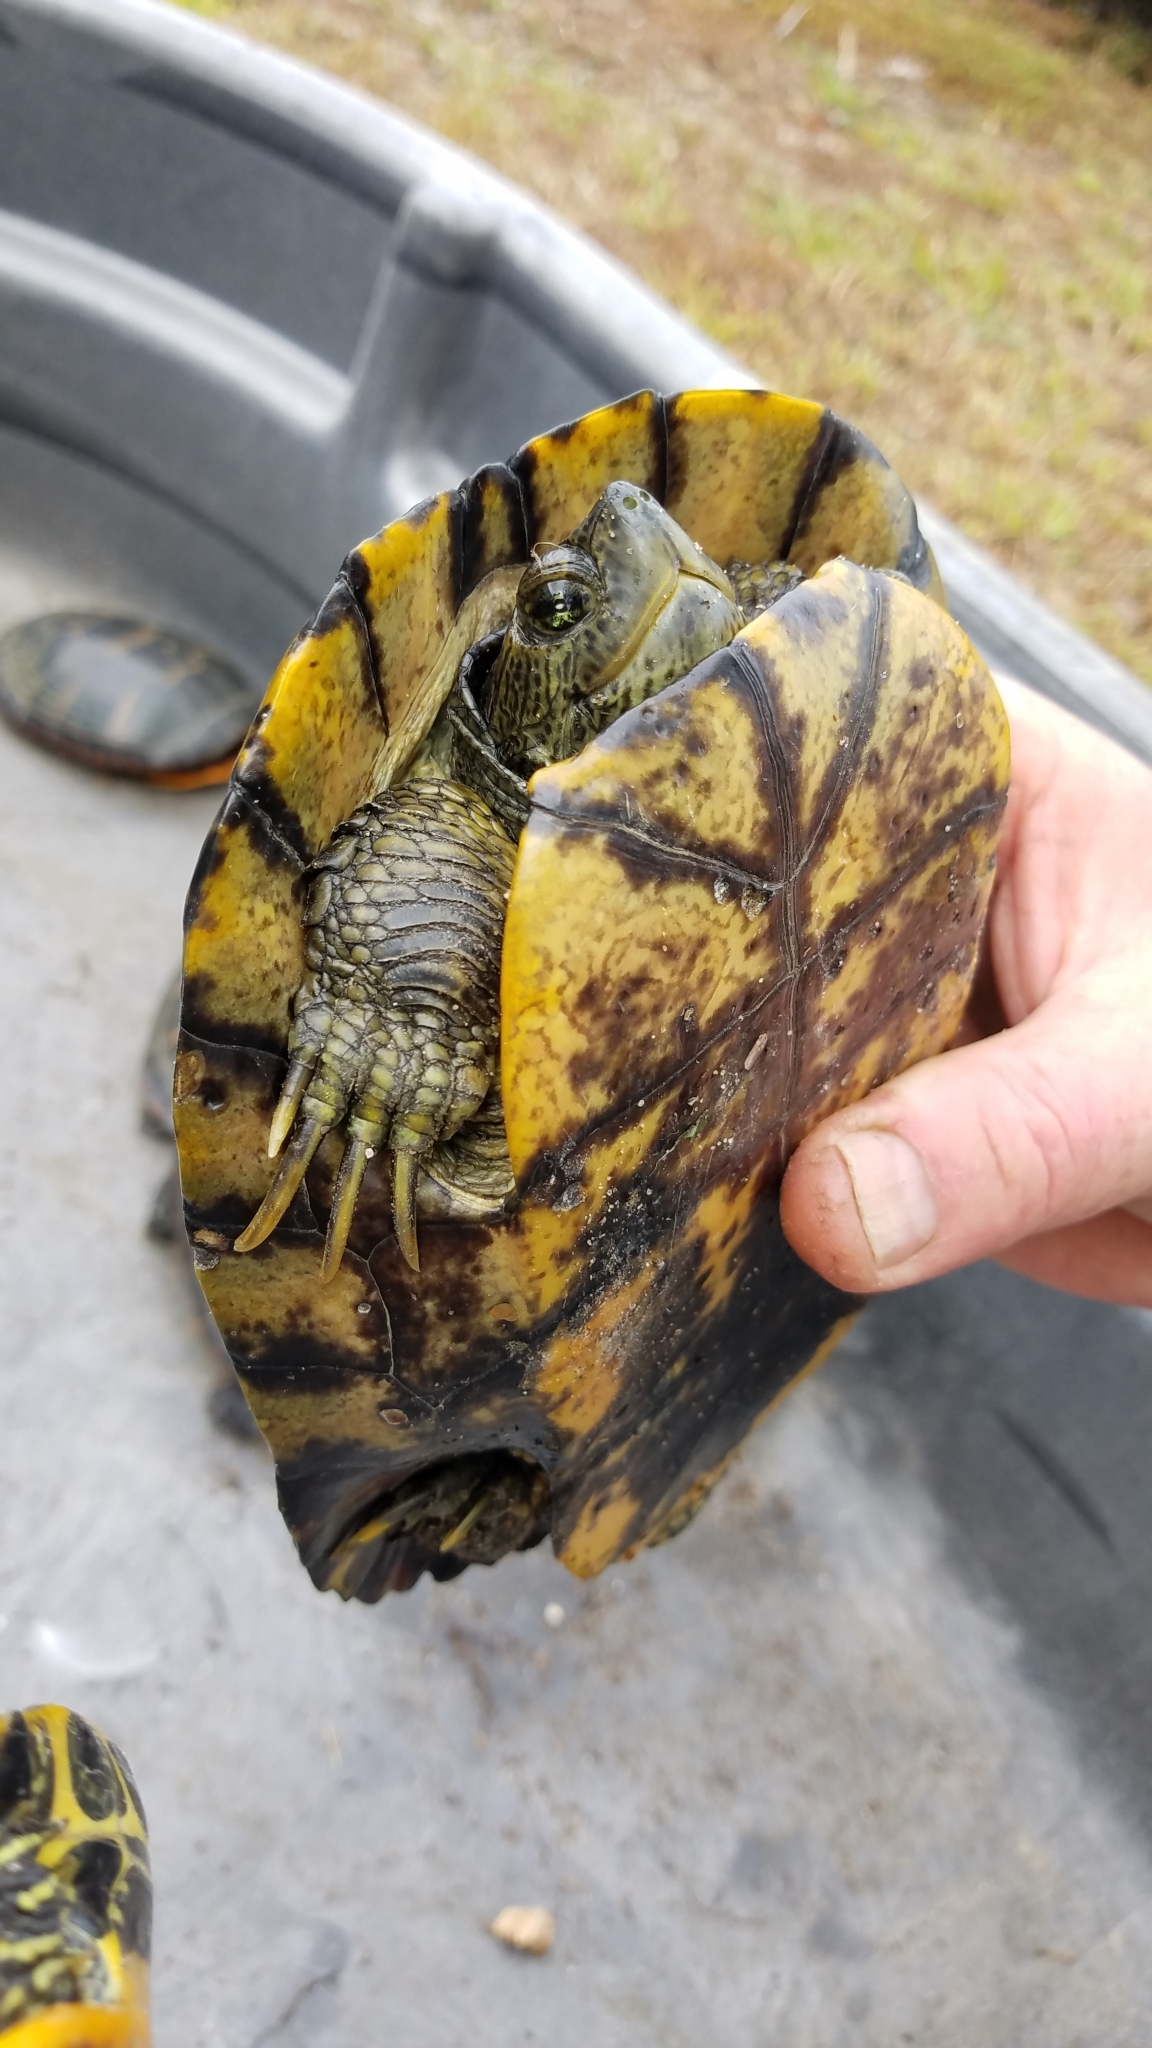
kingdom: Animalia
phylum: Chordata
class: Testudines
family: Emydidae
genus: Trachemys
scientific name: Trachemys scripta
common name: Slider
